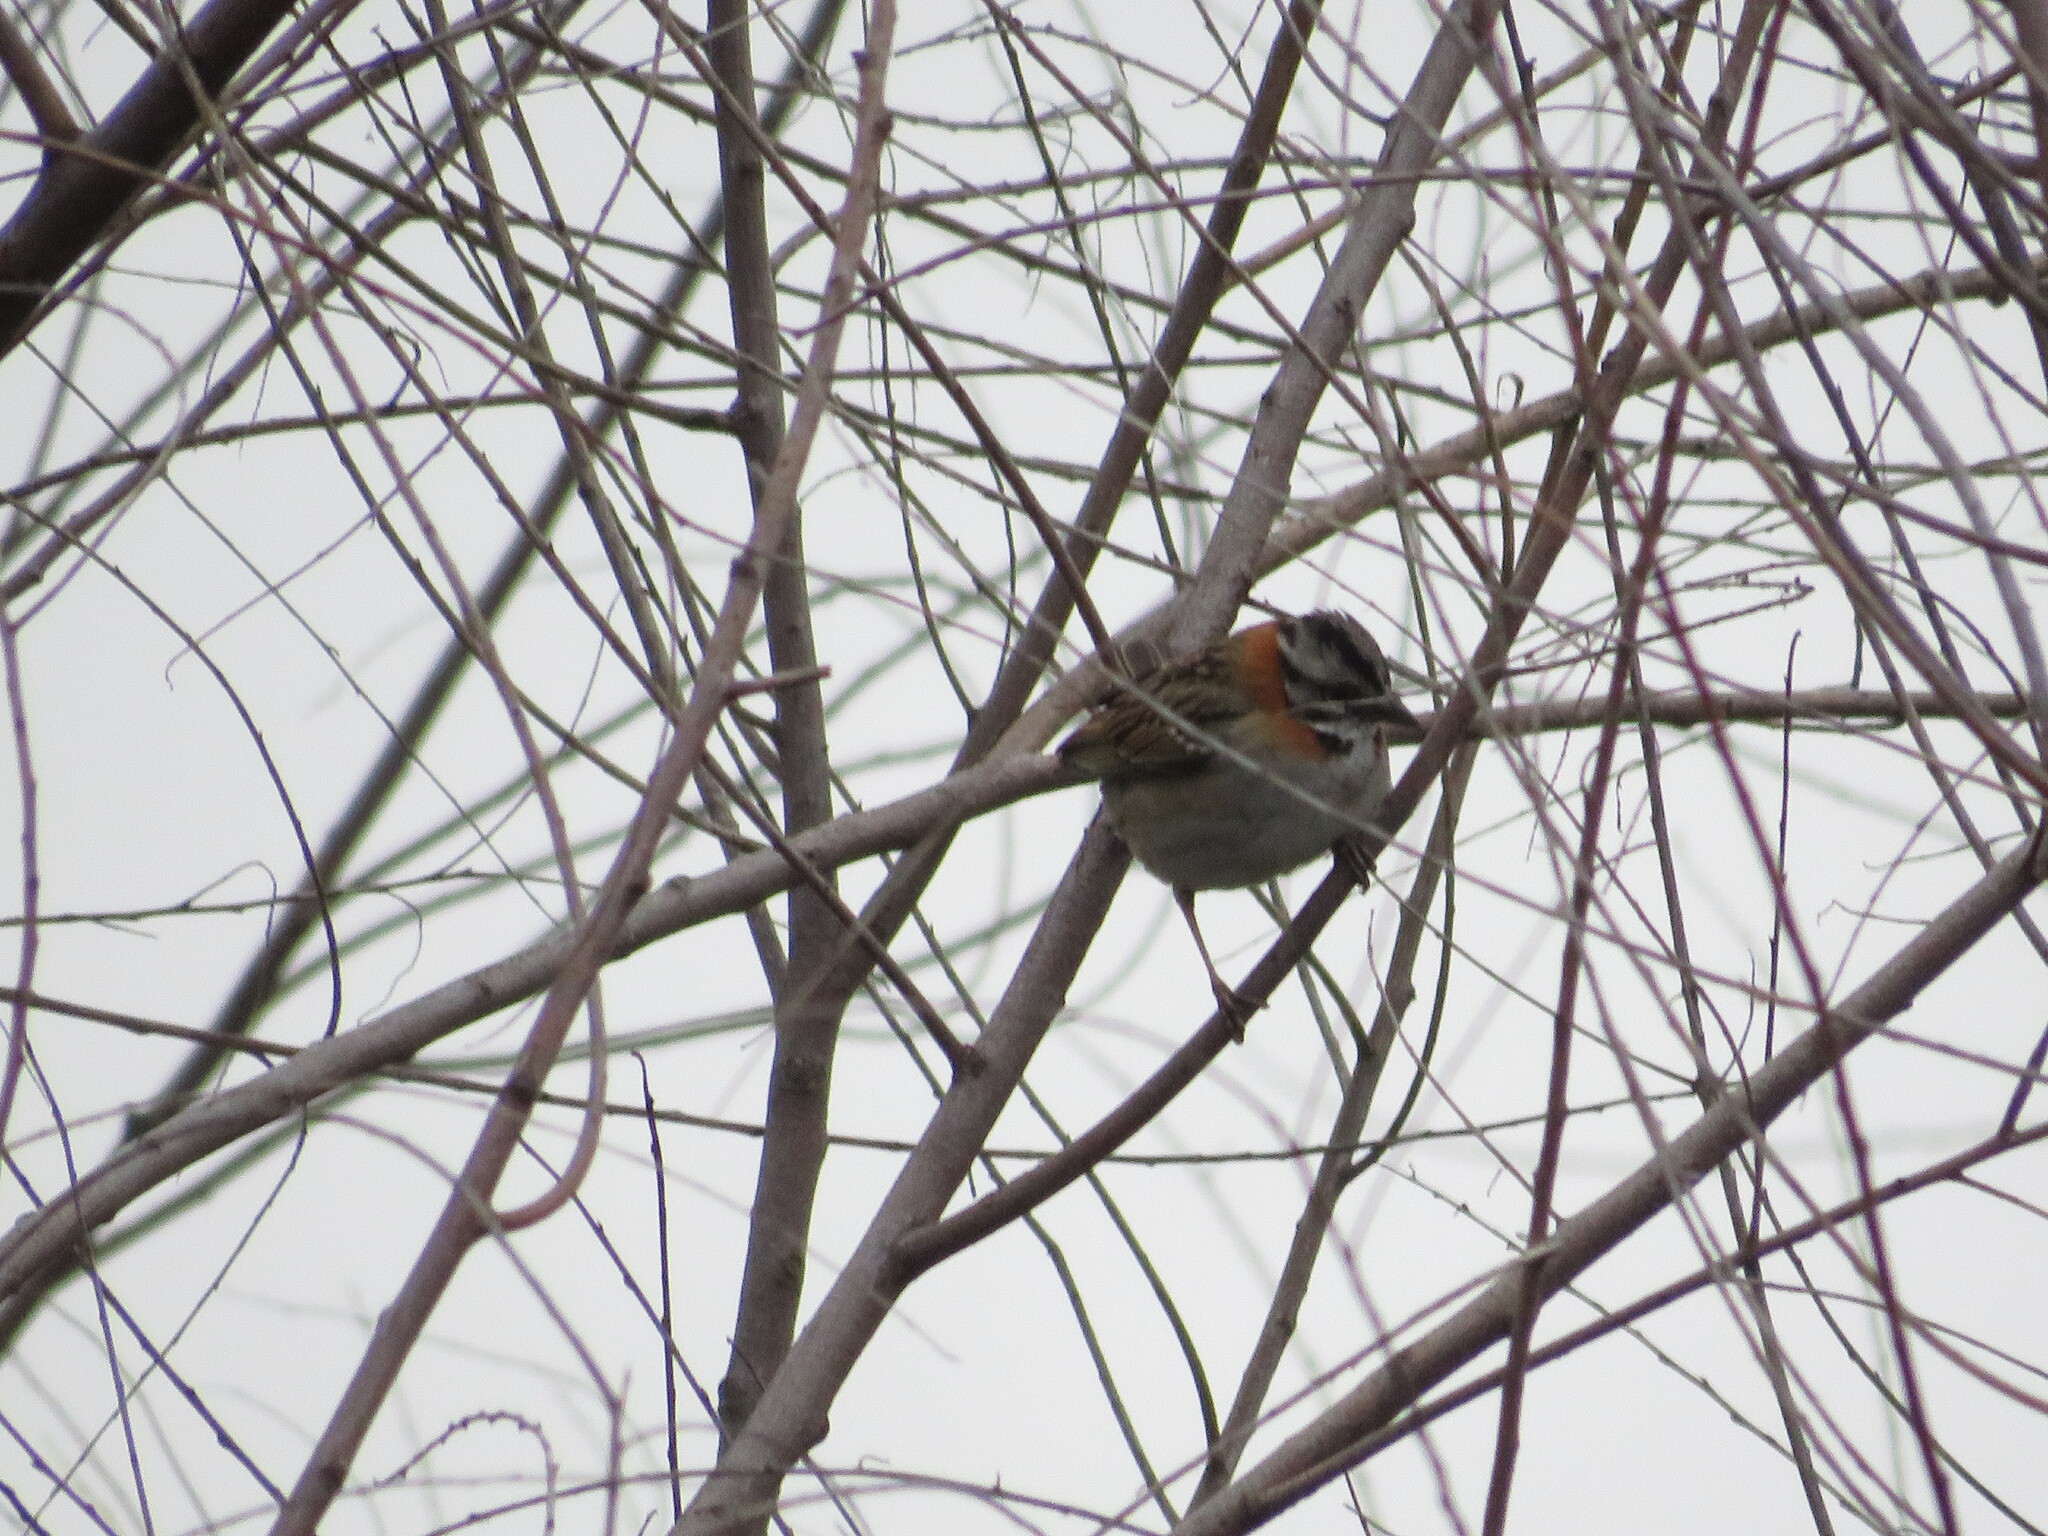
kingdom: Animalia
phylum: Chordata
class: Aves
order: Passeriformes
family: Passerellidae
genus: Zonotrichia
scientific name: Zonotrichia capensis
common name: Rufous-collared sparrow
